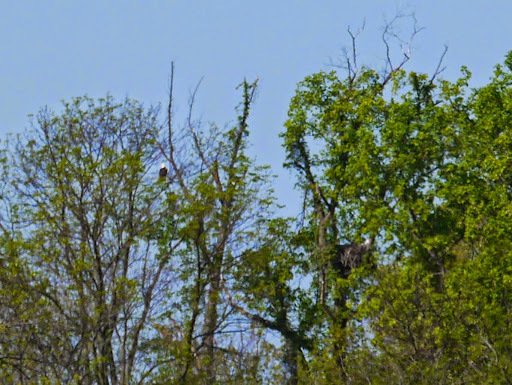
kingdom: Animalia
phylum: Chordata
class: Aves
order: Accipitriformes
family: Accipitridae
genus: Haliaeetus
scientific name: Haliaeetus leucocephalus
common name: Bald eagle
